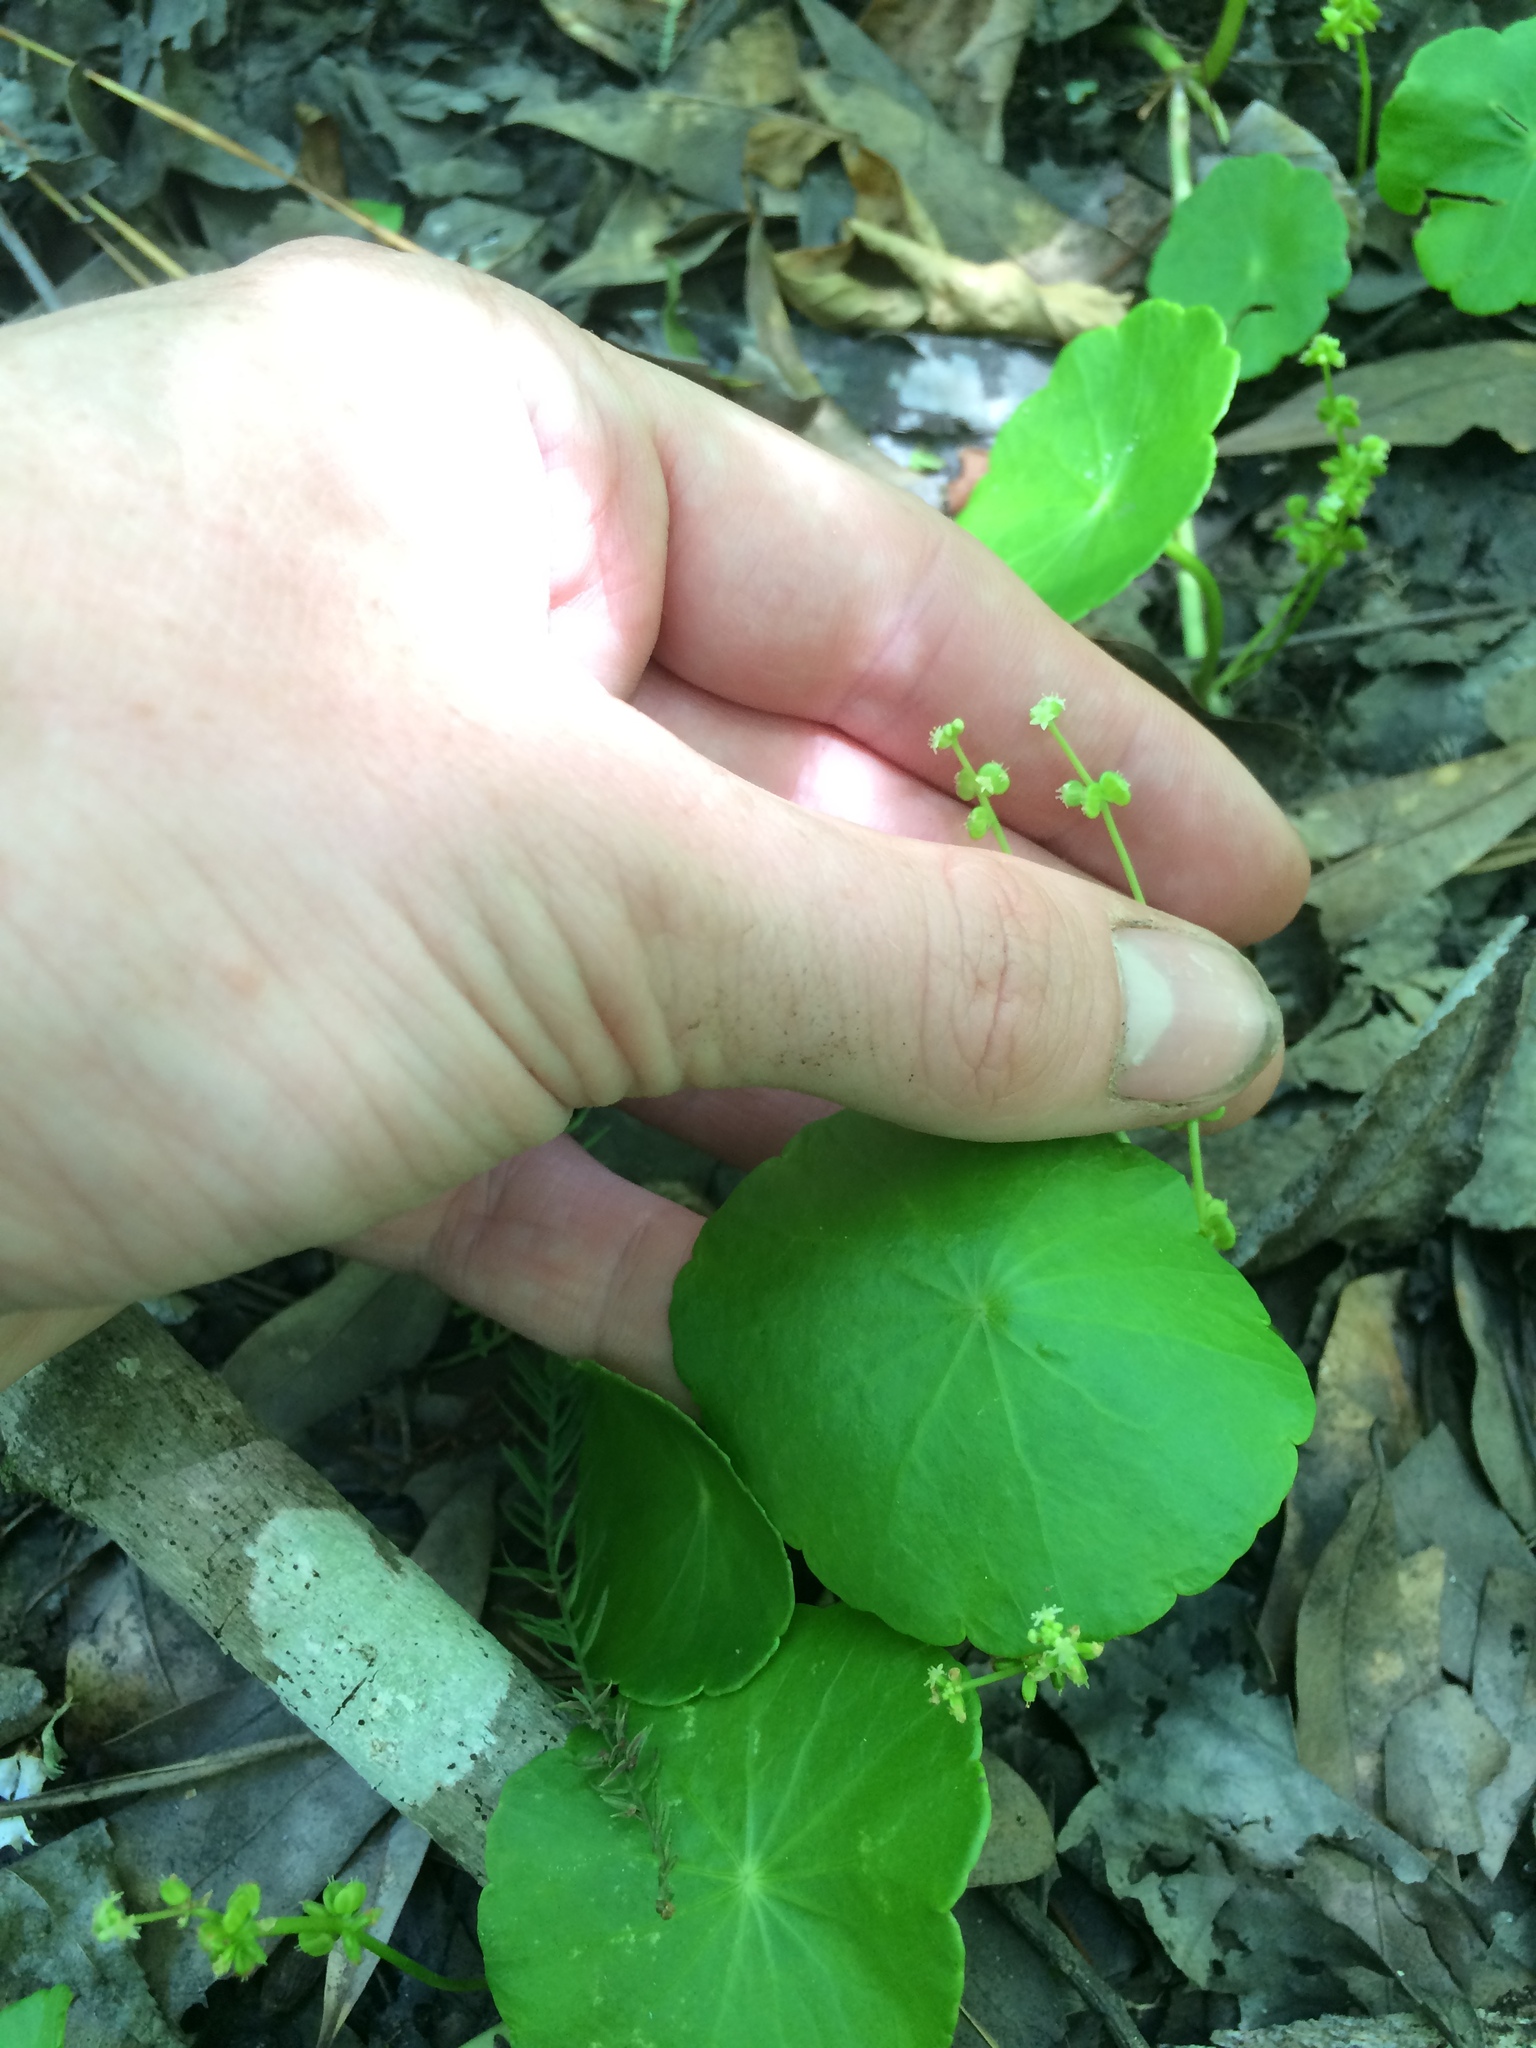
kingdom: Plantae
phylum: Tracheophyta
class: Magnoliopsida
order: Apiales
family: Araliaceae
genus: Hydrocotyle
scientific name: Hydrocotyle verticillata
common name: Whorled marshpennywort
